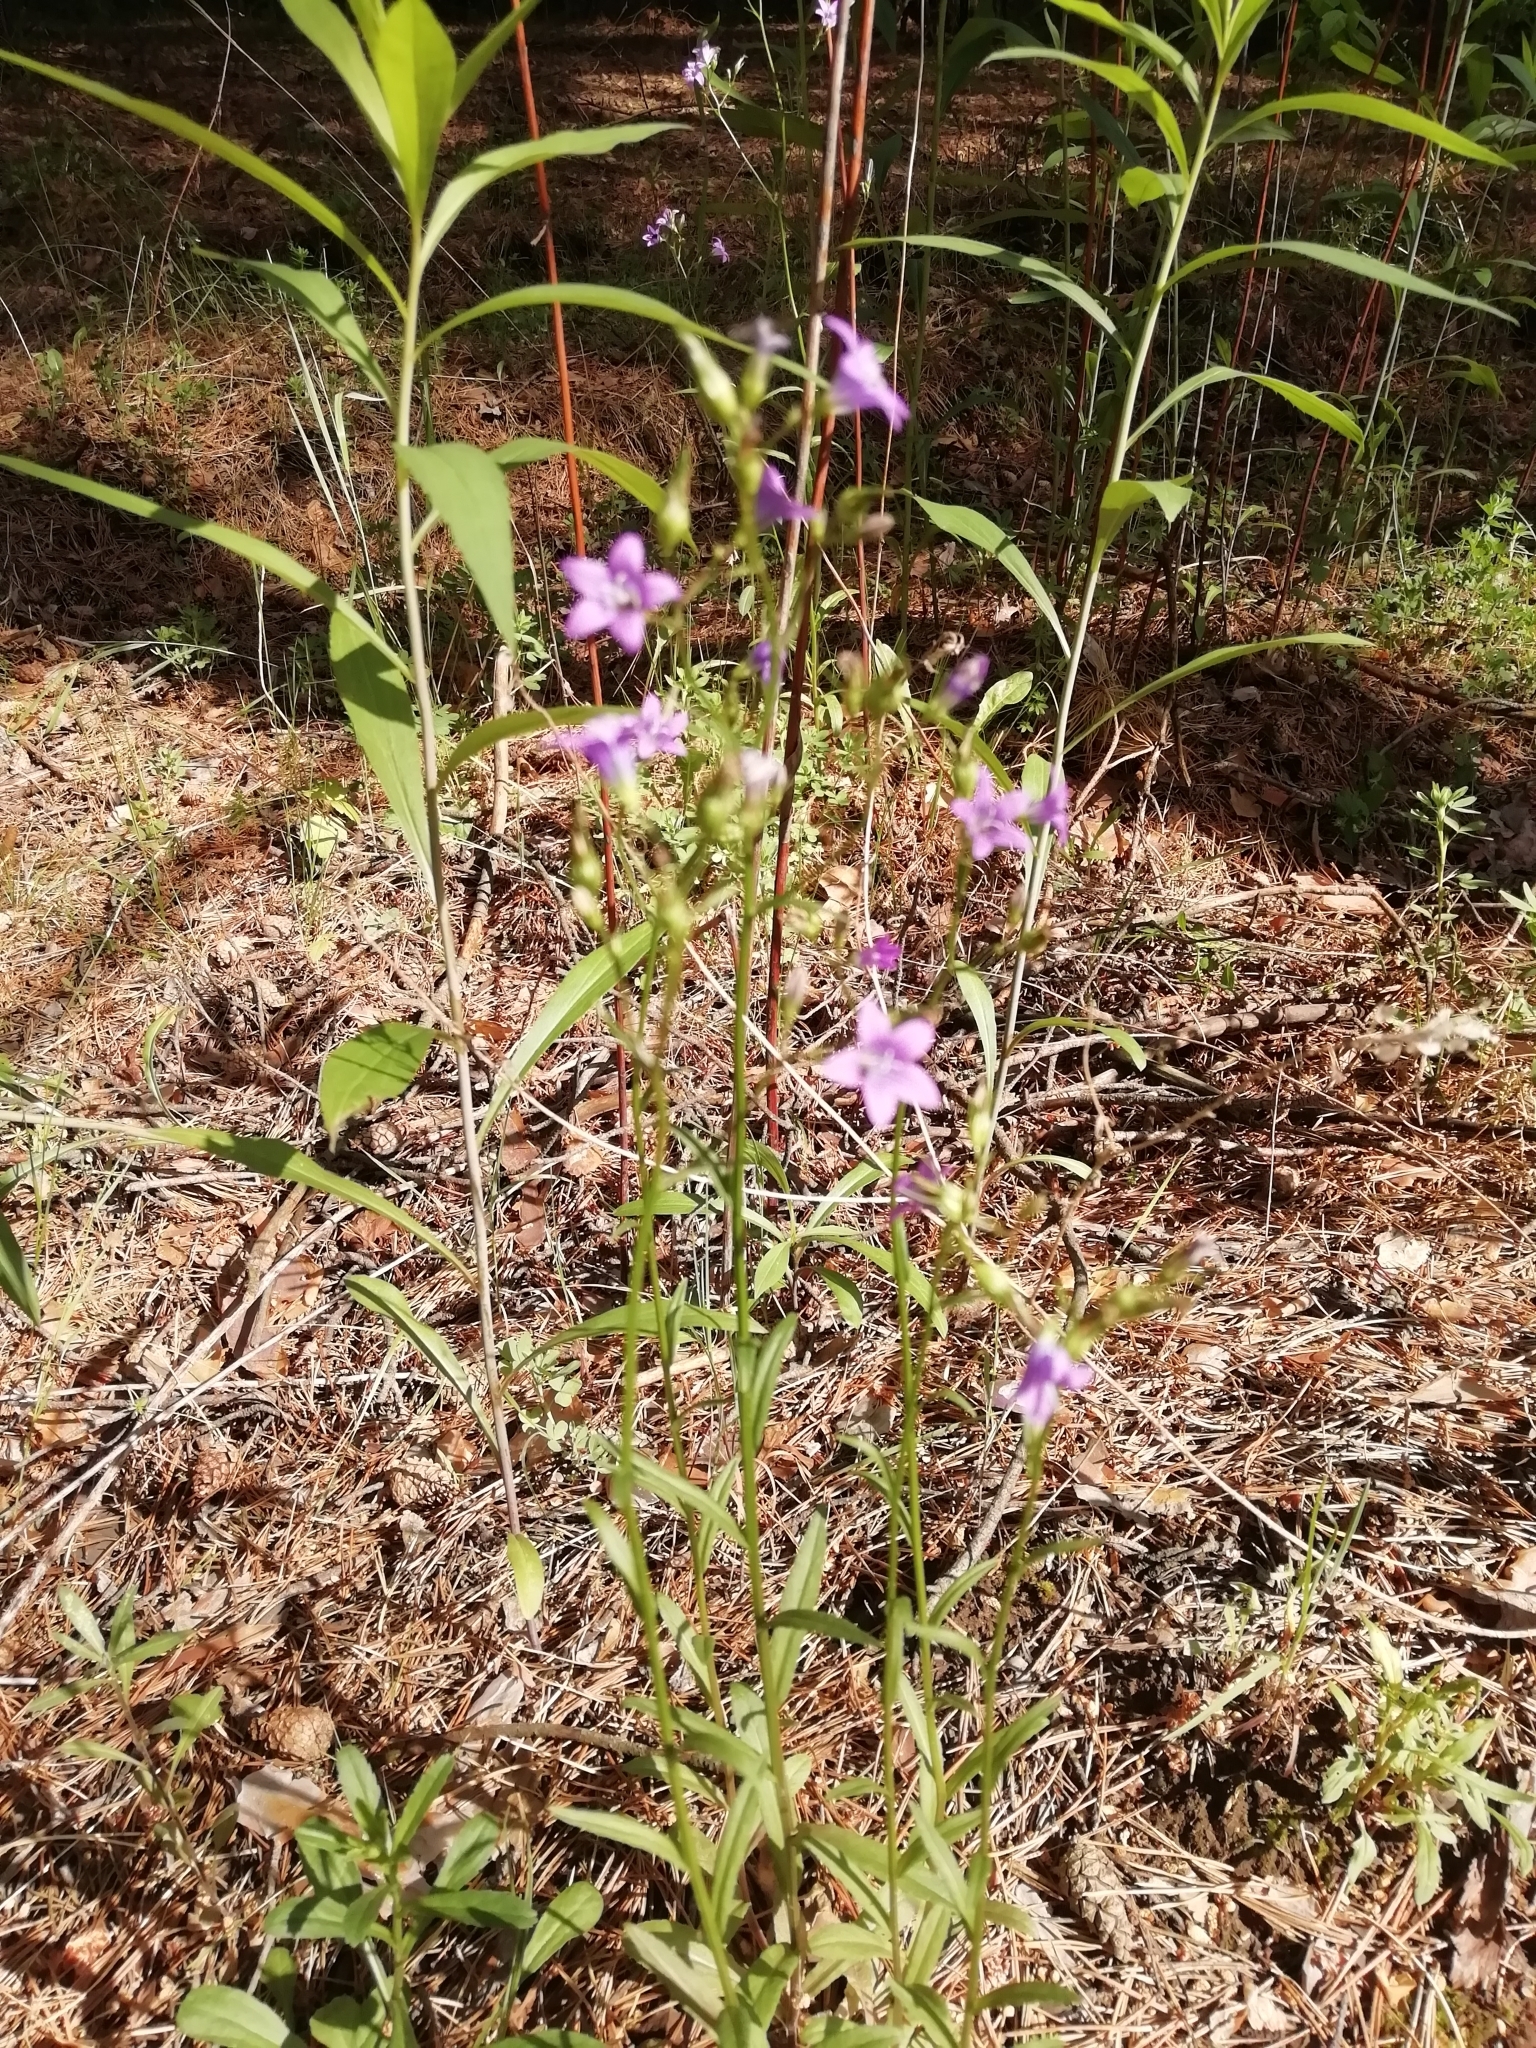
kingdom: Plantae
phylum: Tracheophyta
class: Magnoliopsida
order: Asterales
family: Campanulaceae
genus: Campanula
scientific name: Campanula patula
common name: Spreading bellflower
